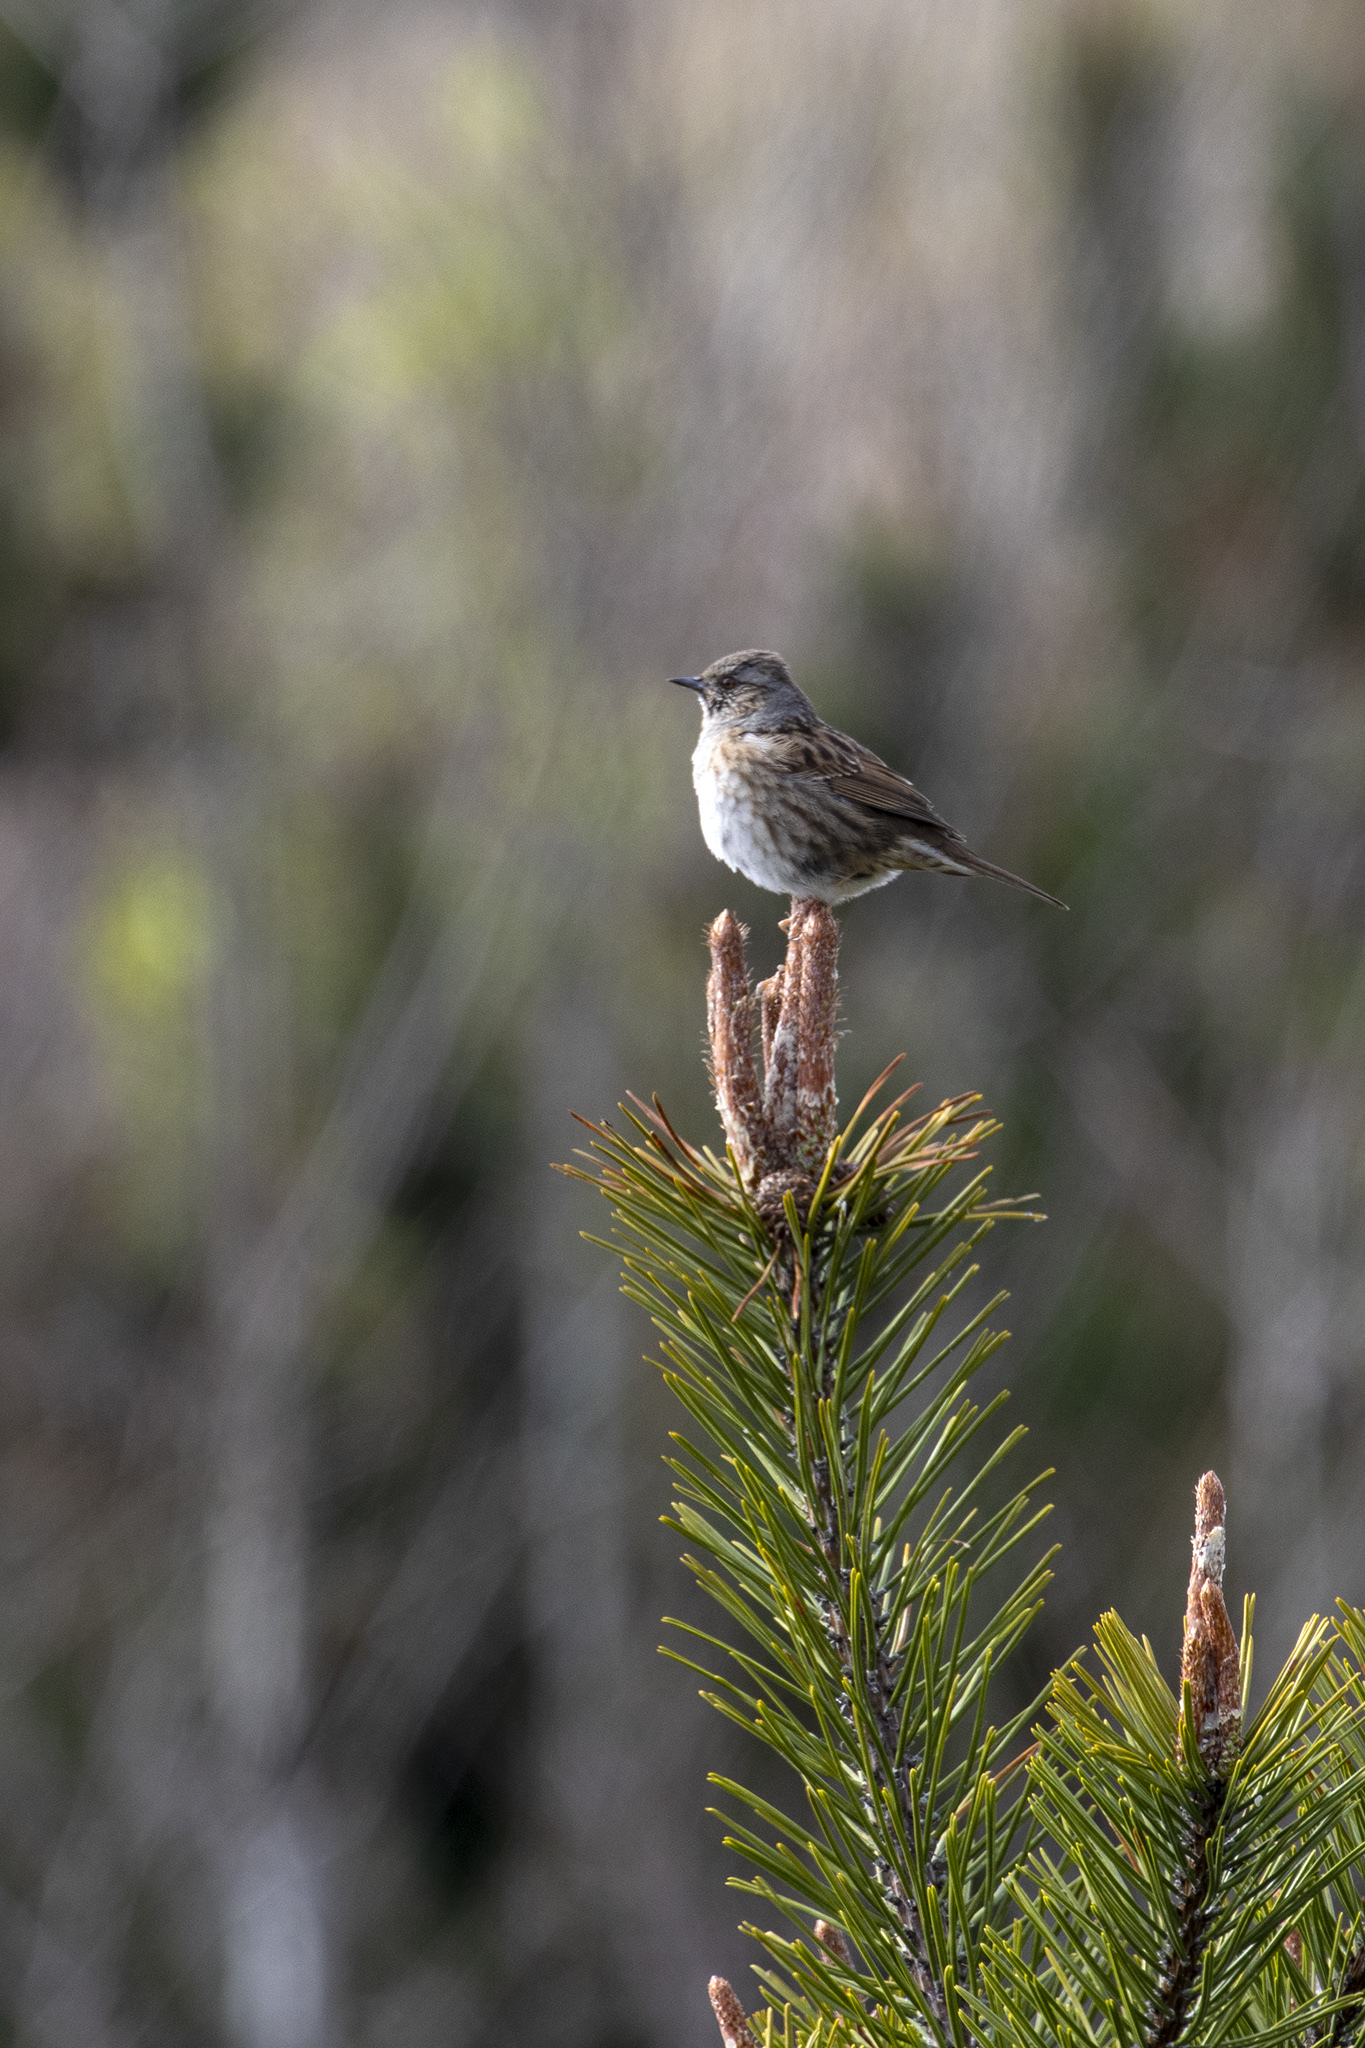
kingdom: Animalia
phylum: Chordata
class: Aves
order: Passeriformes
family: Prunellidae
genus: Prunella
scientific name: Prunella modularis
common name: Dunnock
